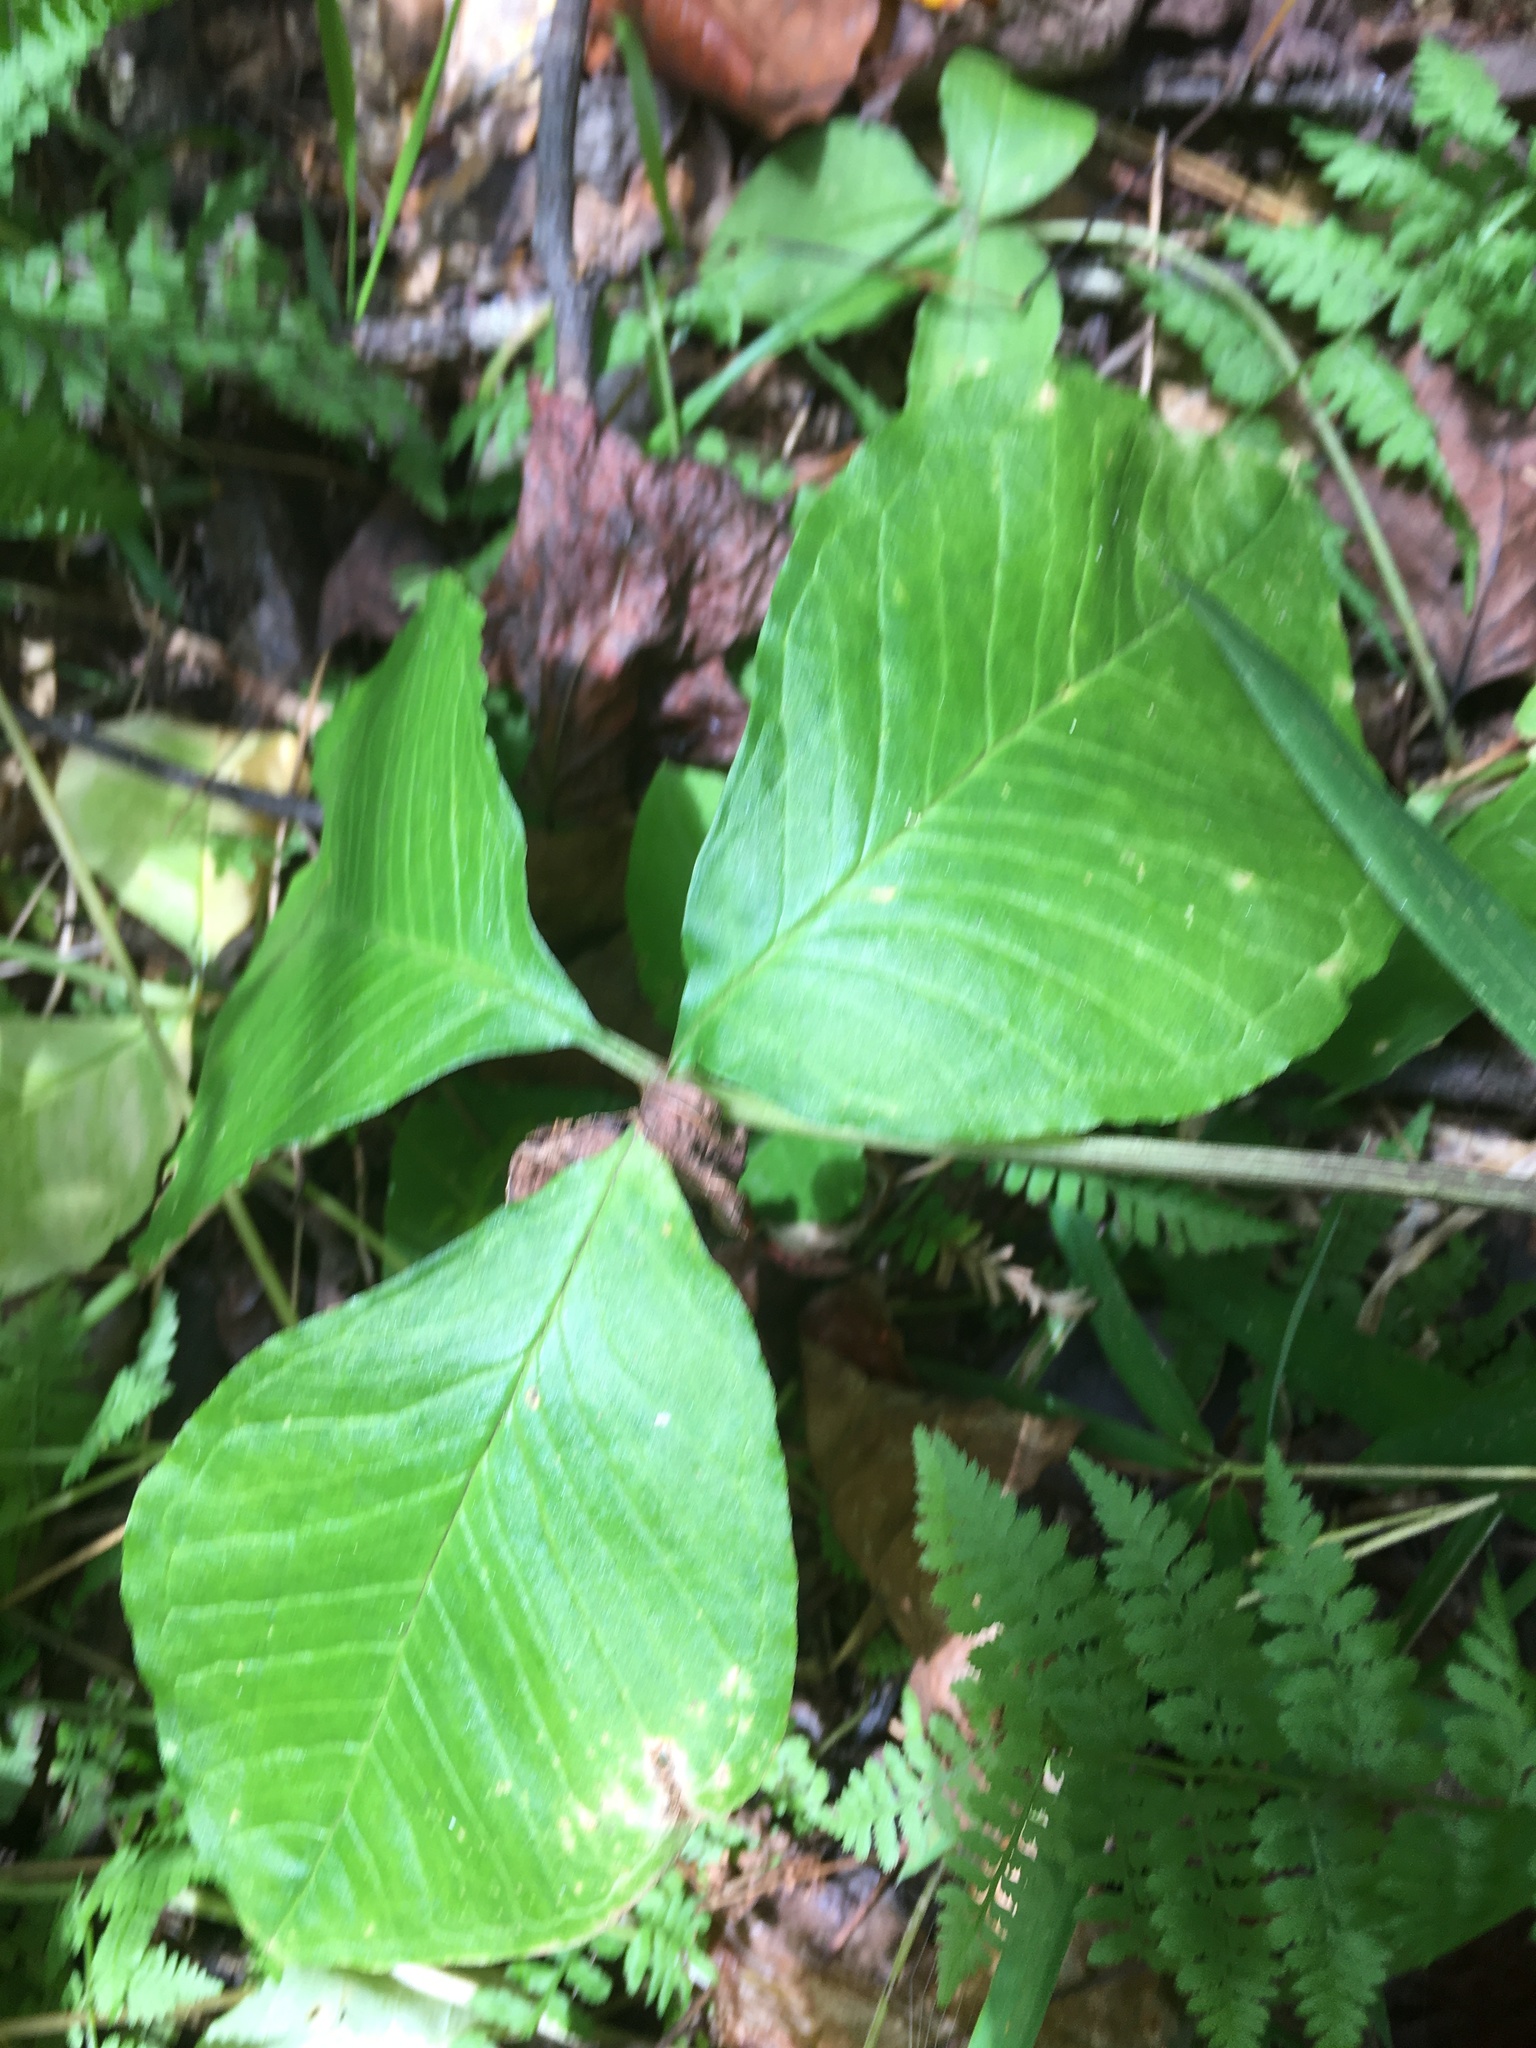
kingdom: Plantae
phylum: Tracheophyta
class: Liliopsida
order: Alismatales
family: Araceae
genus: Arisaema
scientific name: Arisaema triphyllum
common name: Jack-in-the-pulpit
